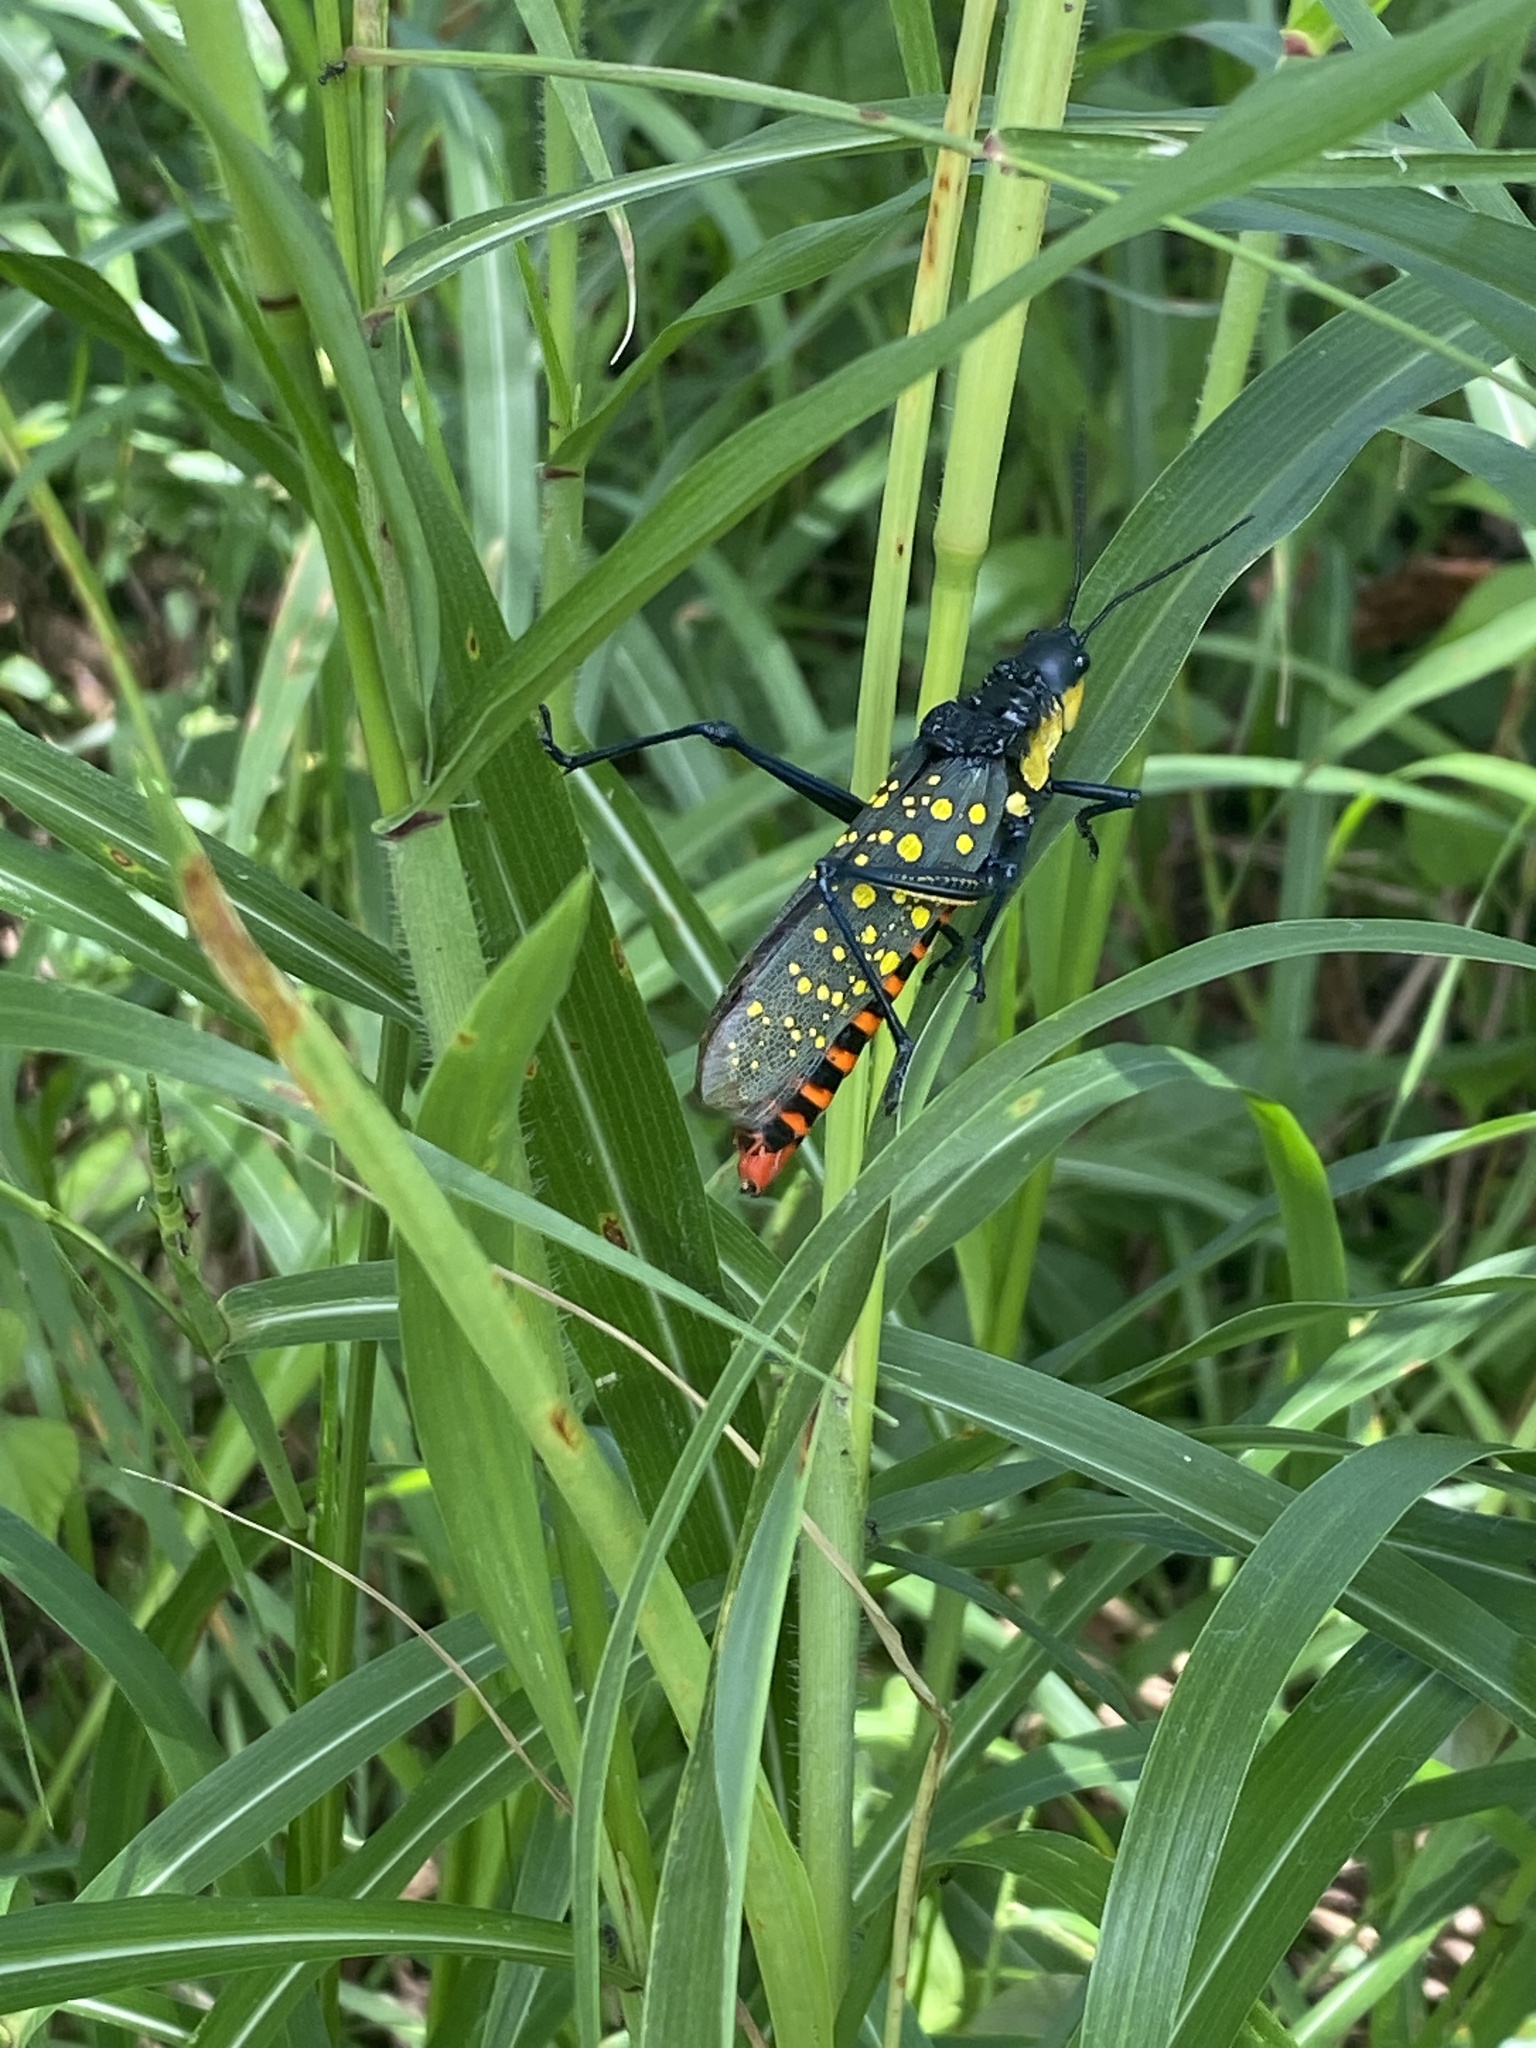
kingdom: Animalia
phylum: Arthropoda
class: Insecta
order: Orthoptera
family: Pyrgomorphidae
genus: Aularches
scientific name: Aularches miliaris
